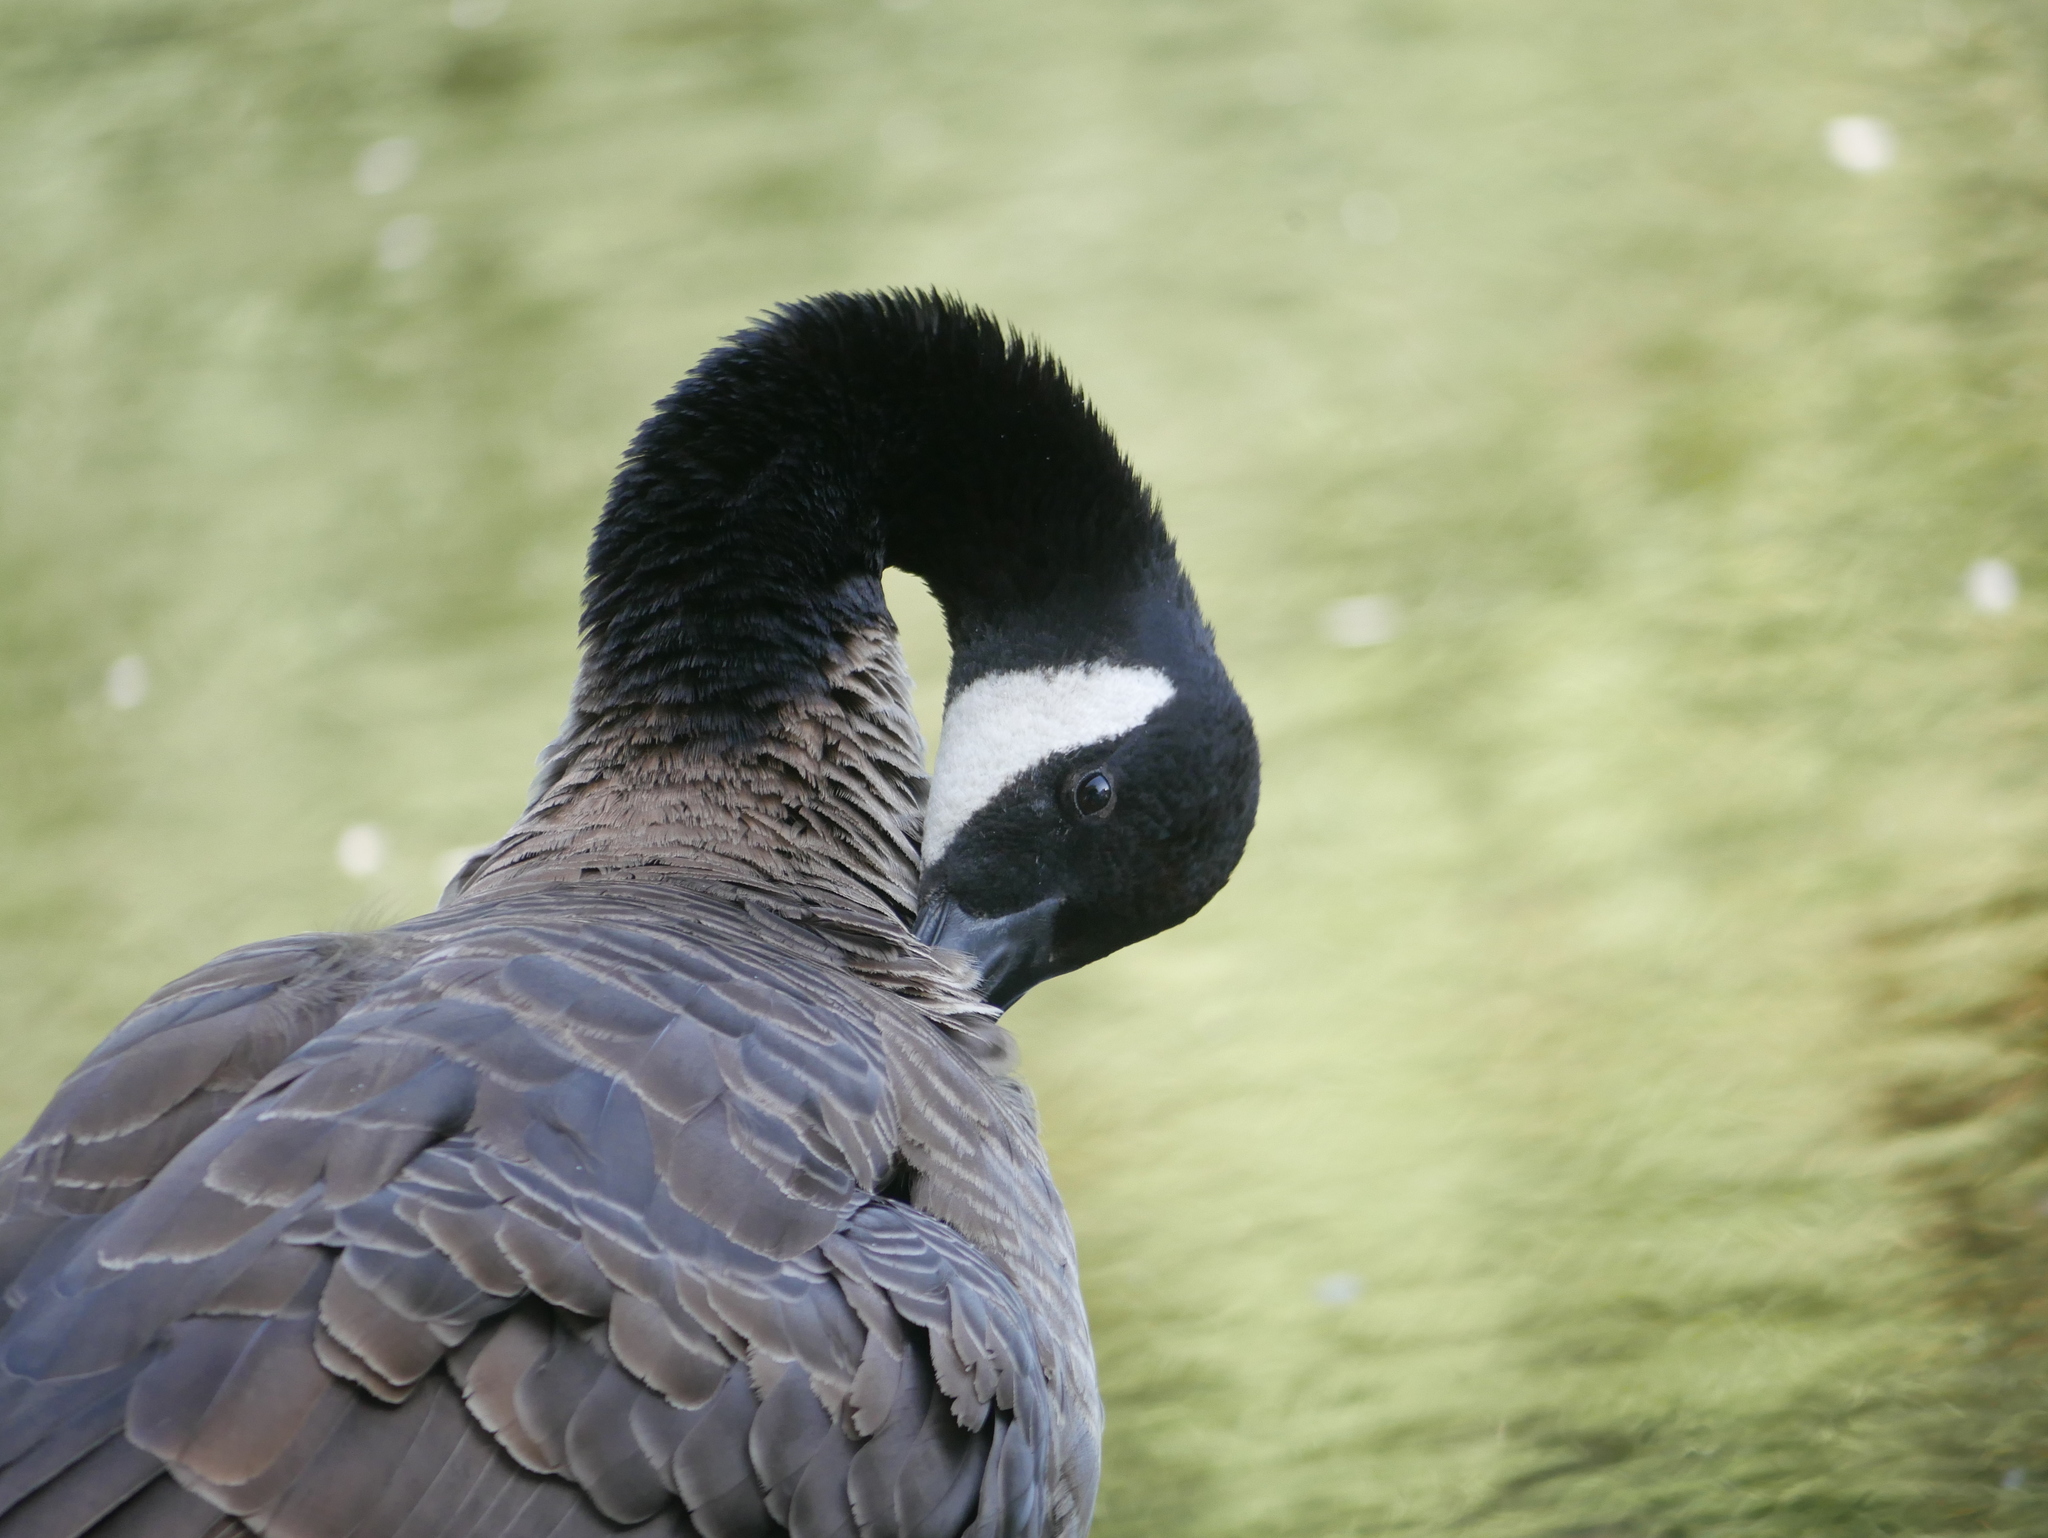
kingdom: Animalia
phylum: Chordata
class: Aves
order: Anseriformes
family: Anatidae
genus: Branta
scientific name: Branta canadensis
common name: Canada goose
